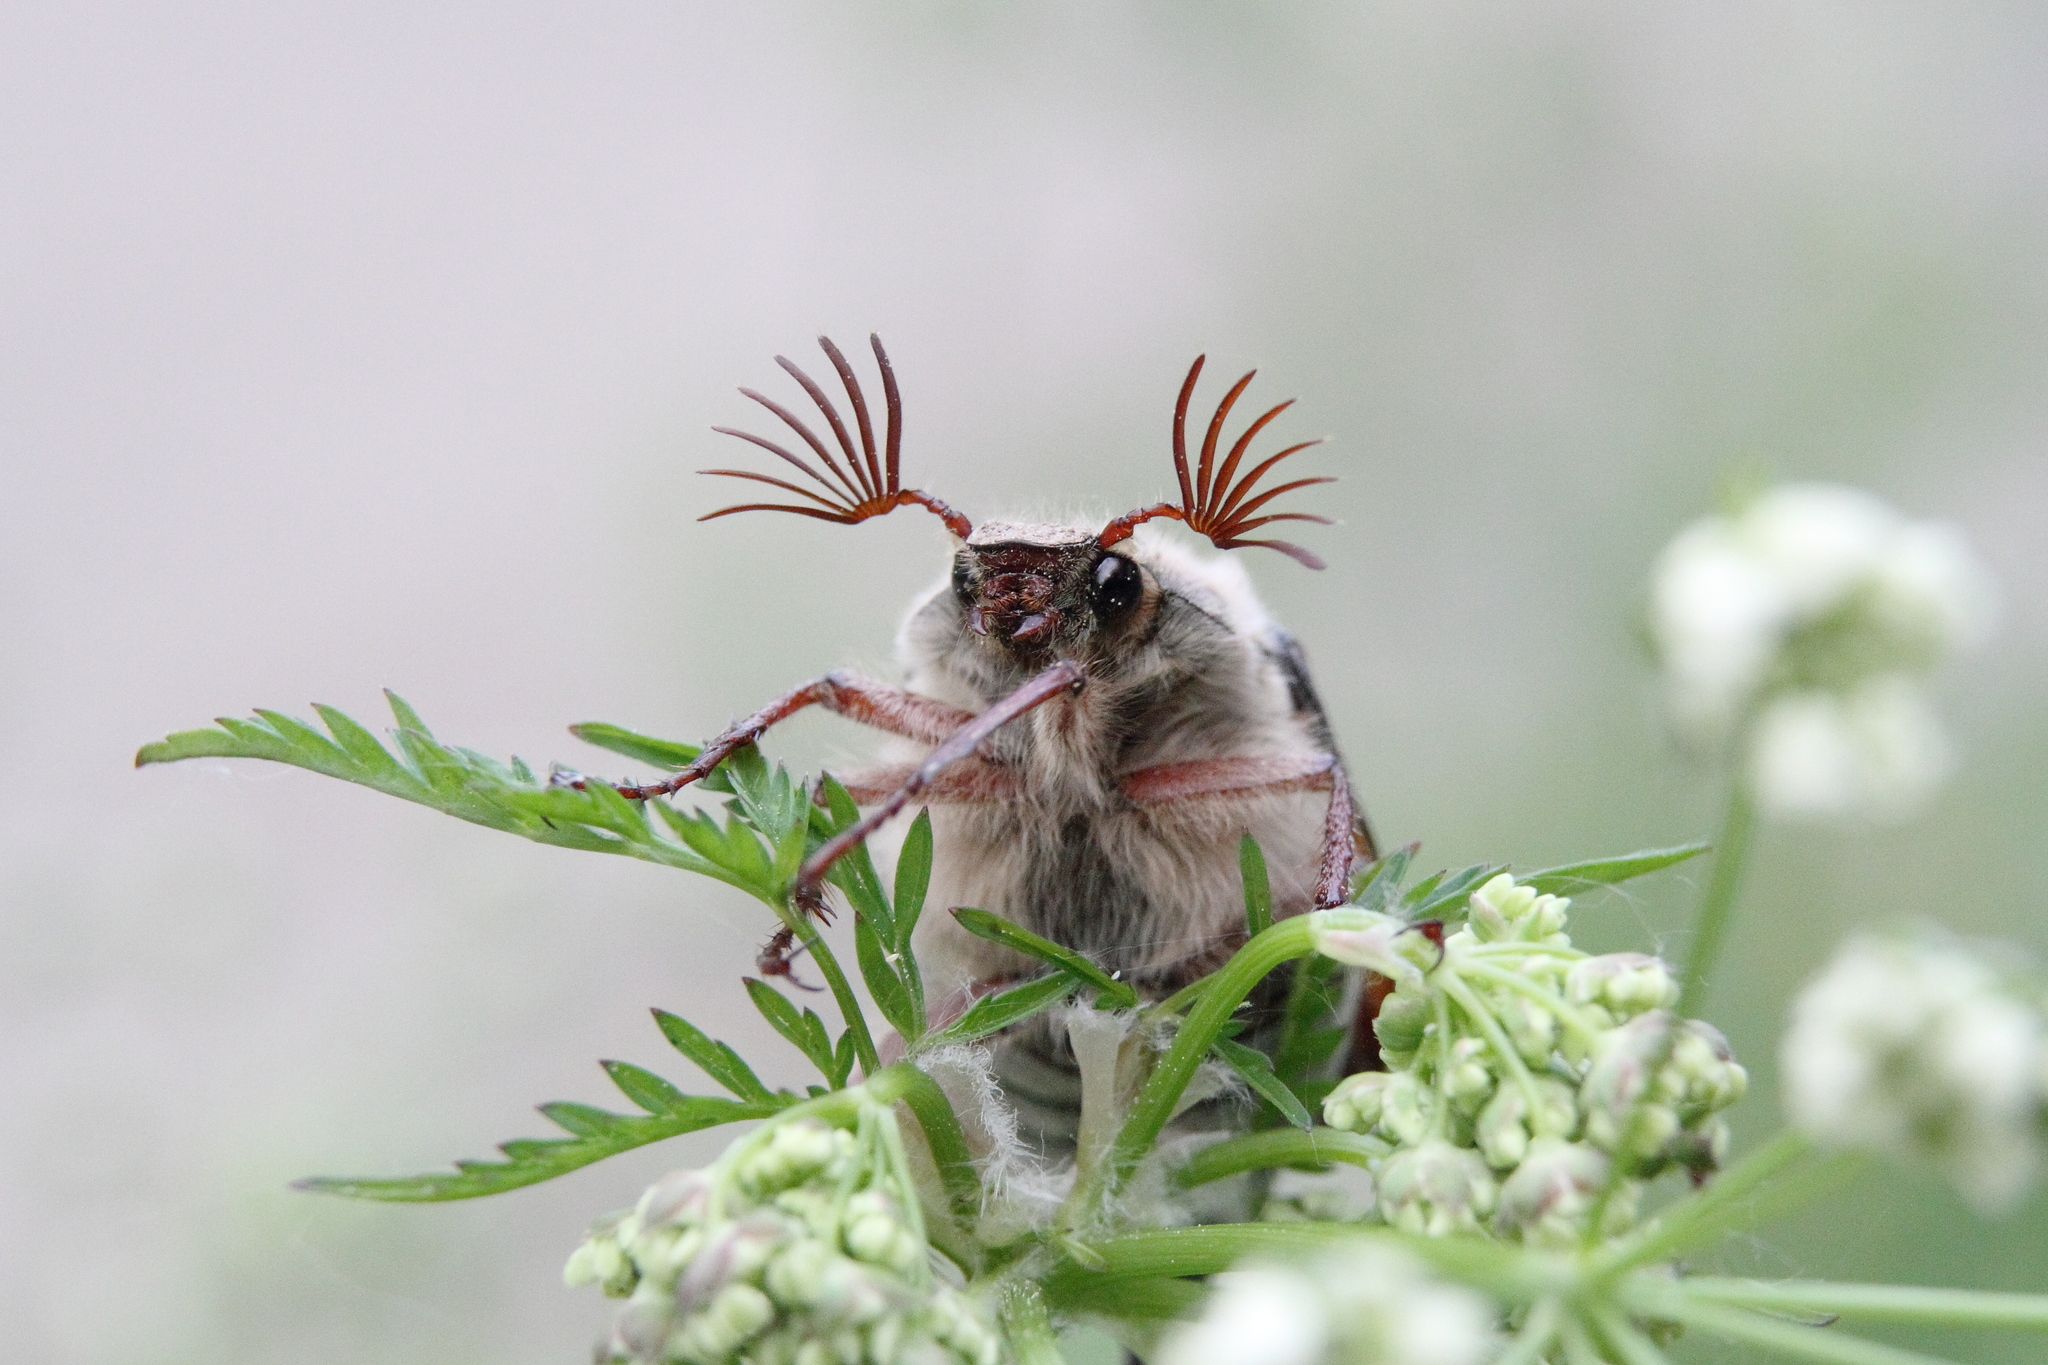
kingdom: Animalia
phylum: Arthropoda
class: Insecta
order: Coleoptera
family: Scarabaeidae
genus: Melolontha
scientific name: Melolontha hippocastani
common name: Chestnut cockchafer
